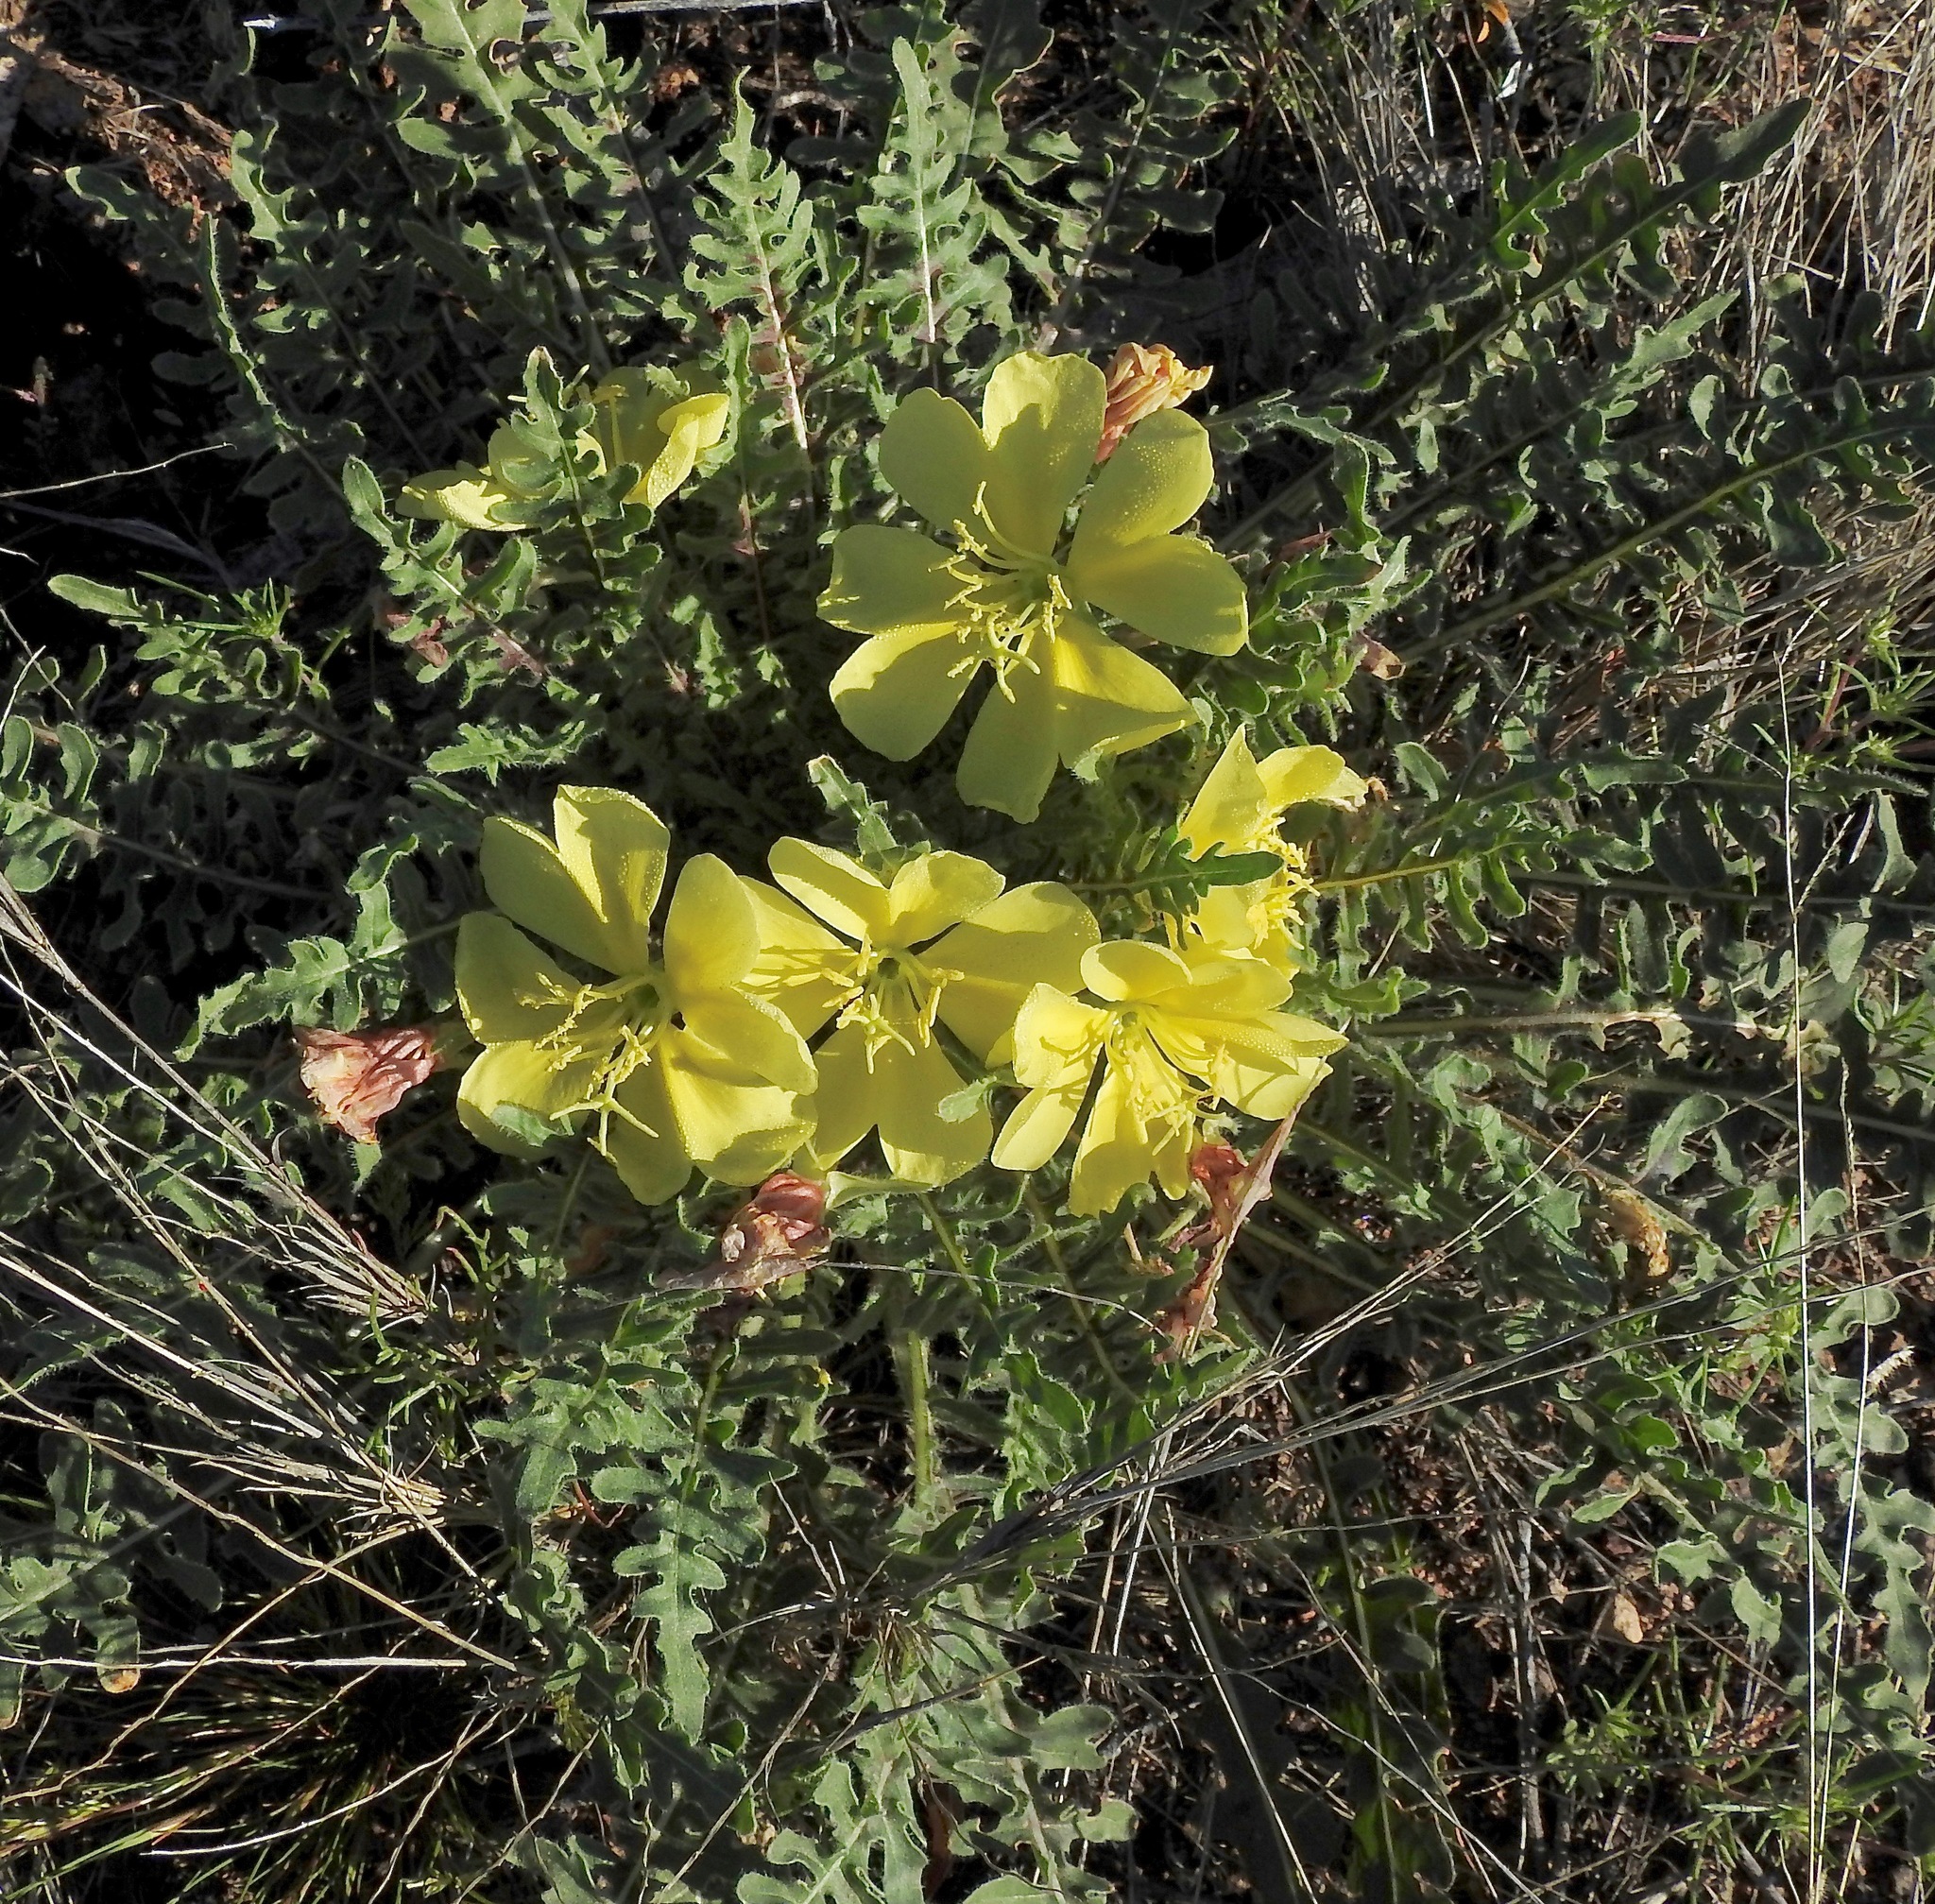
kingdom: Plantae
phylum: Tracheophyta
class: Magnoliopsida
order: Myrtales
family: Onagraceae
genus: Oenothera
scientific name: Oenothera primiveris
